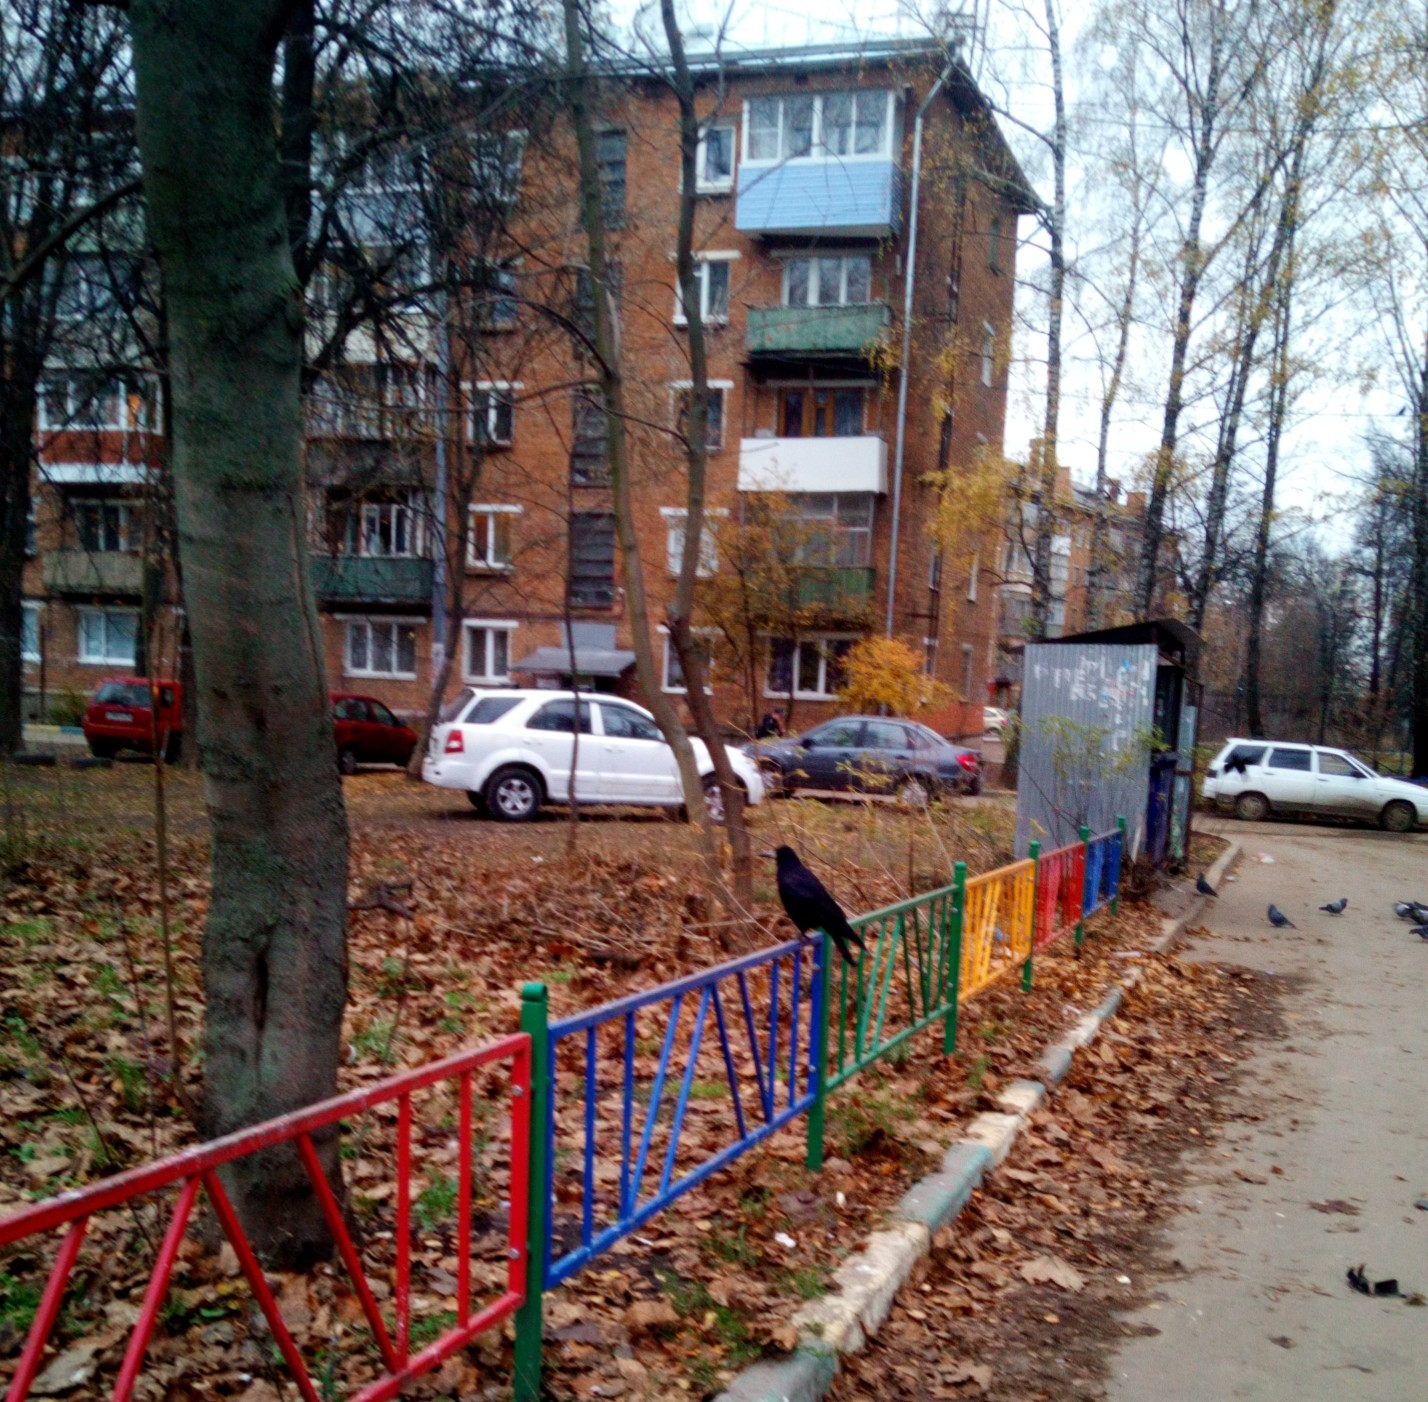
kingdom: Animalia
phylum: Chordata
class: Aves
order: Passeriformes
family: Corvidae
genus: Corvus
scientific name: Corvus frugilegus
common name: Rook
